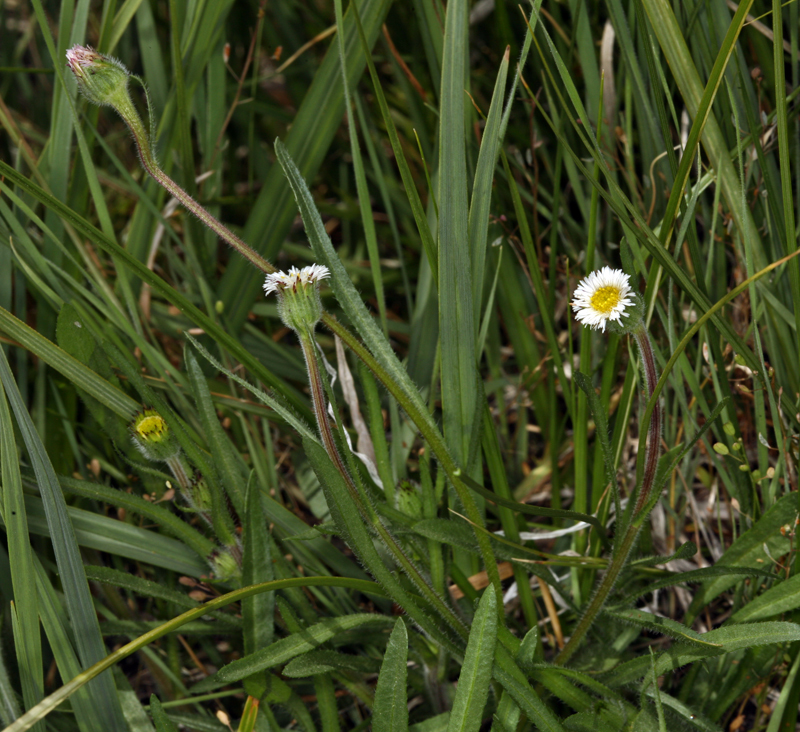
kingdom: Plantae
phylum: Tracheophyta
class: Magnoliopsida
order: Asterales
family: Asteraceae
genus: Erigeron
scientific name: Erigeron lonchophyllus
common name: Short-ray fleabane
